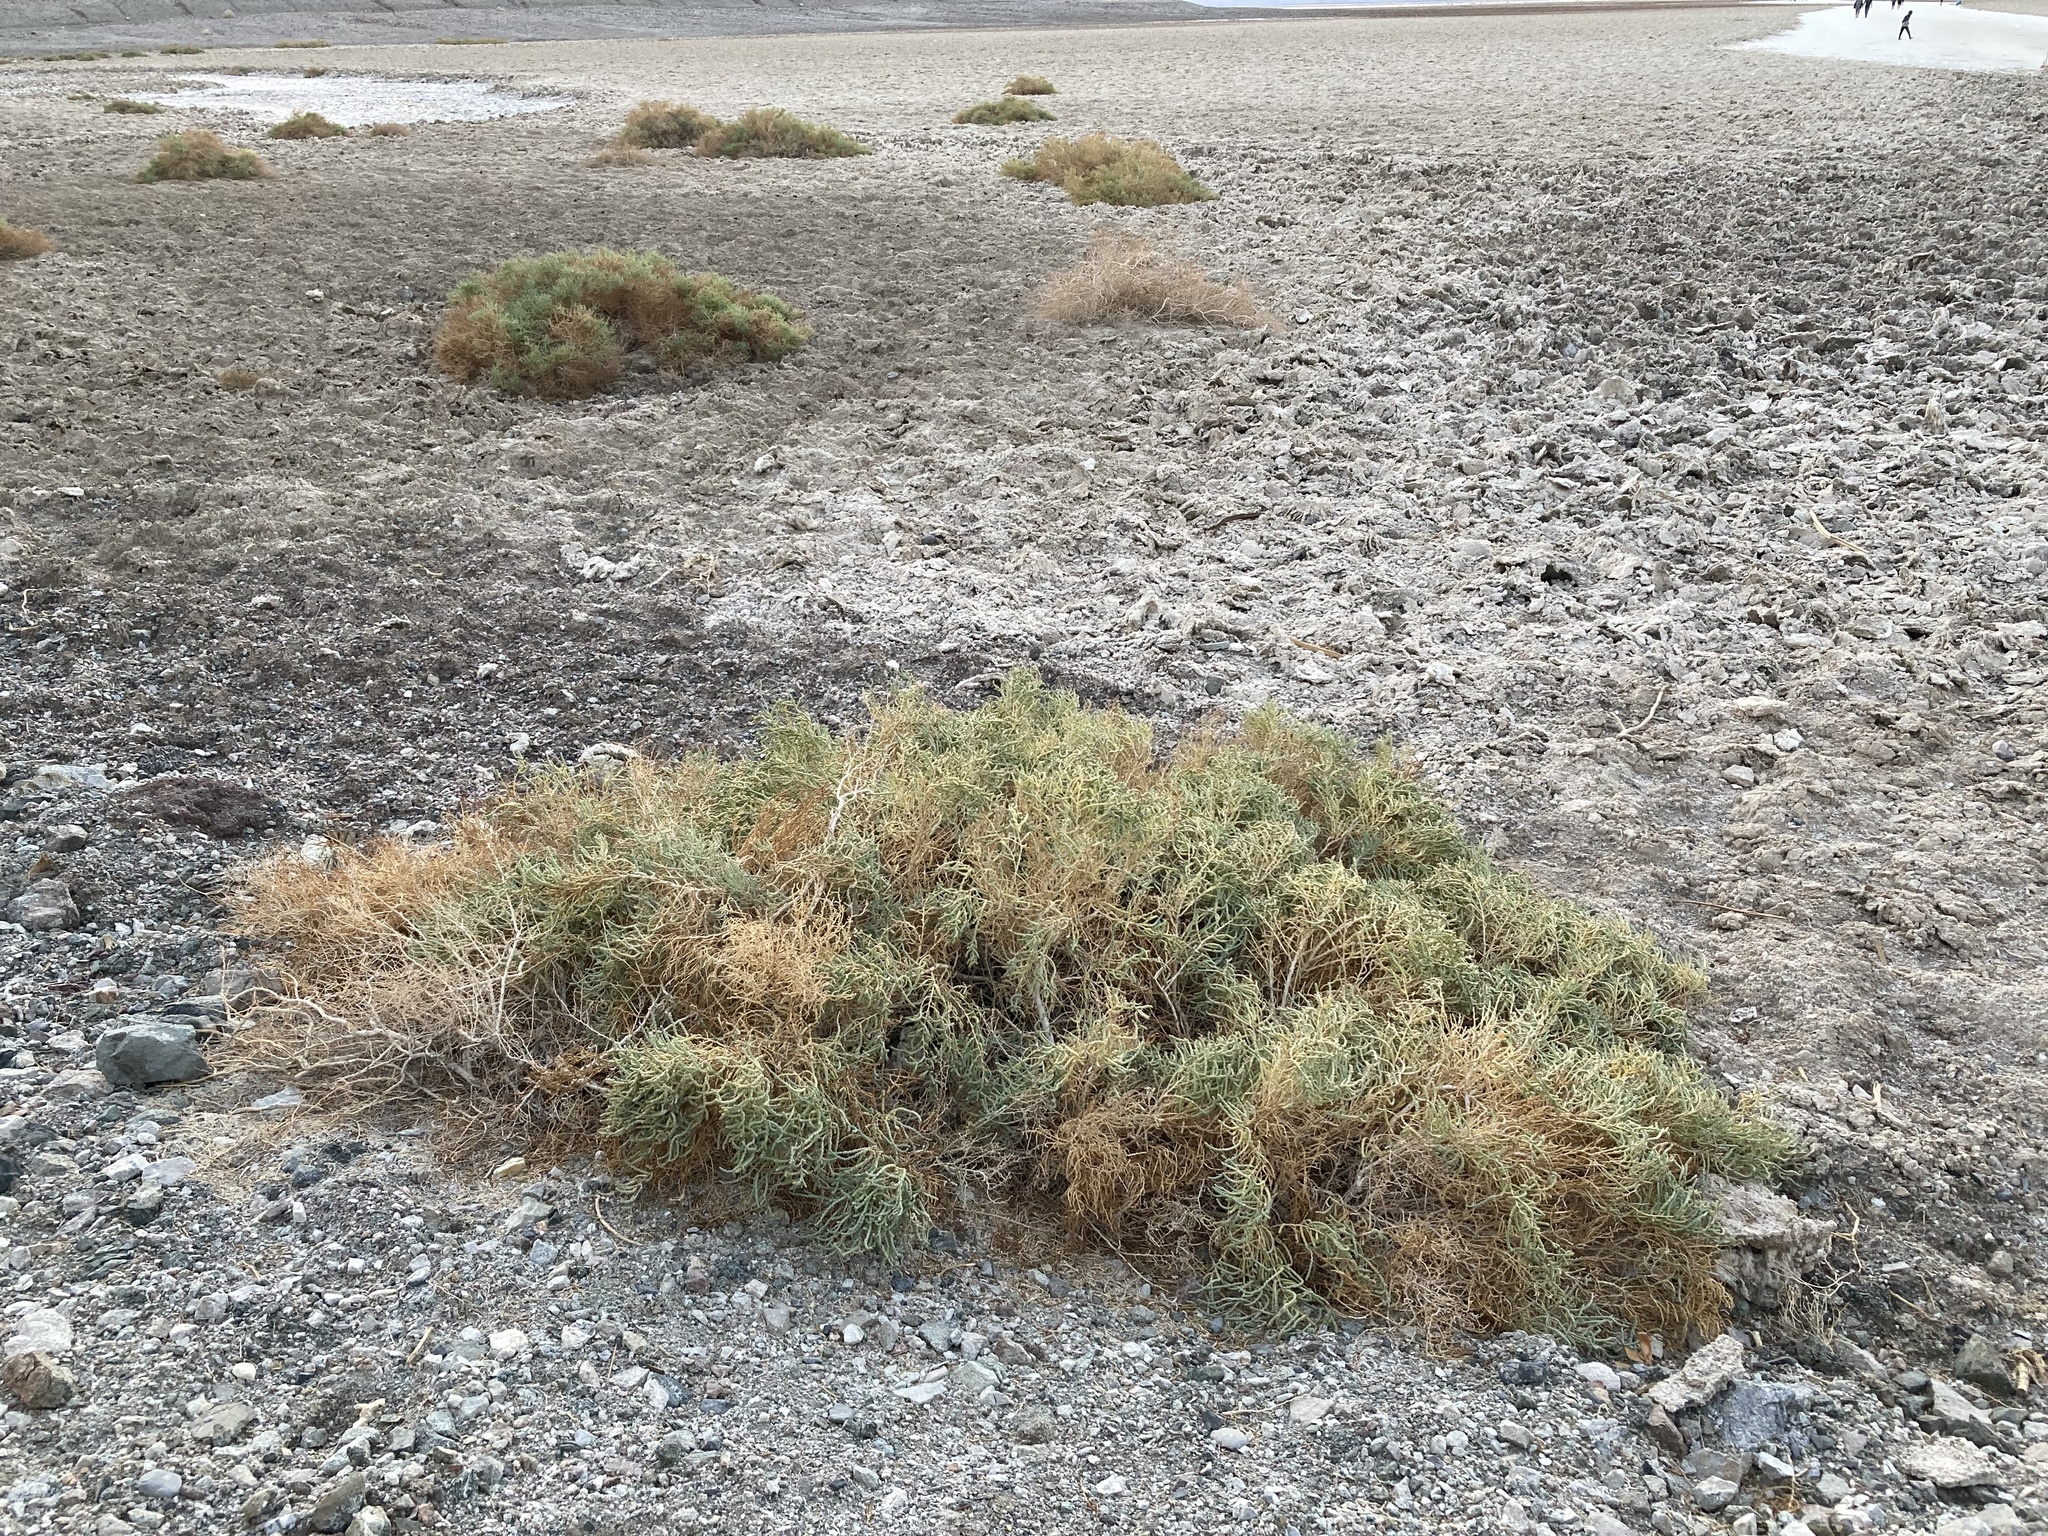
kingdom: Plantae
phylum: Tracheophyta
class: Magnoliopsida
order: Caryophyllales
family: Amaranthaceae
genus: Allenrolfea
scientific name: Allenrolfea occidentalis
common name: Iodine-bush
